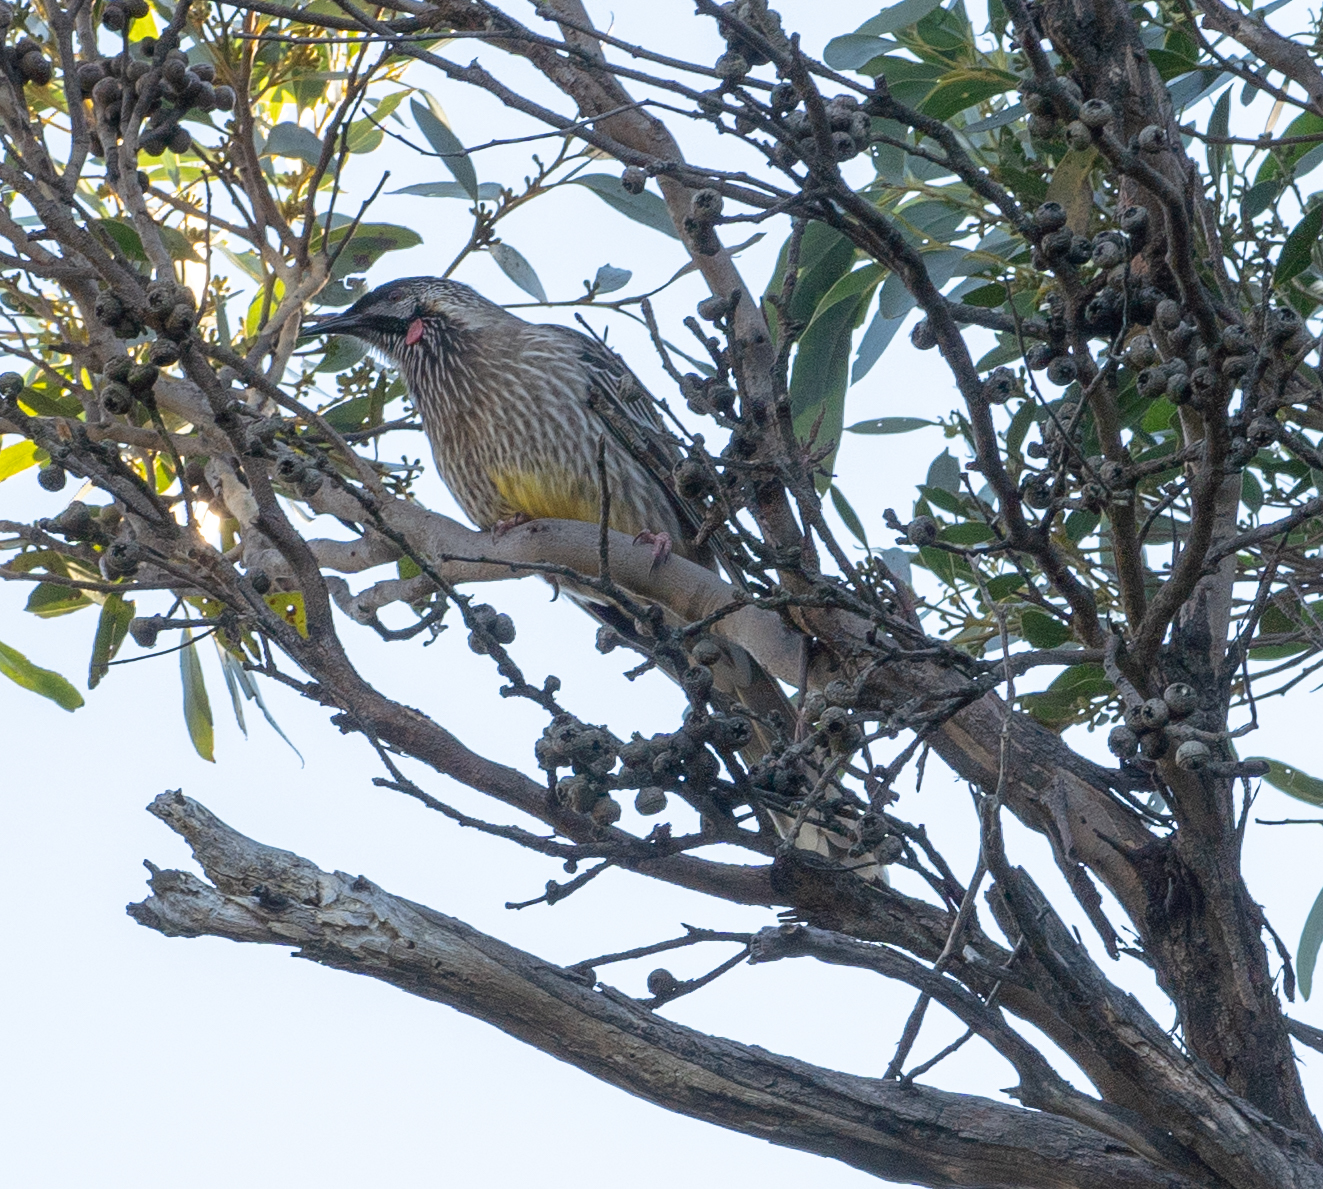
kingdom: Animalia
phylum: Chordata
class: Aves
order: Passeriformes
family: Meliphagidae
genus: Anthochaera
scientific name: Anthochaera carunculata
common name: Red wattlebird
